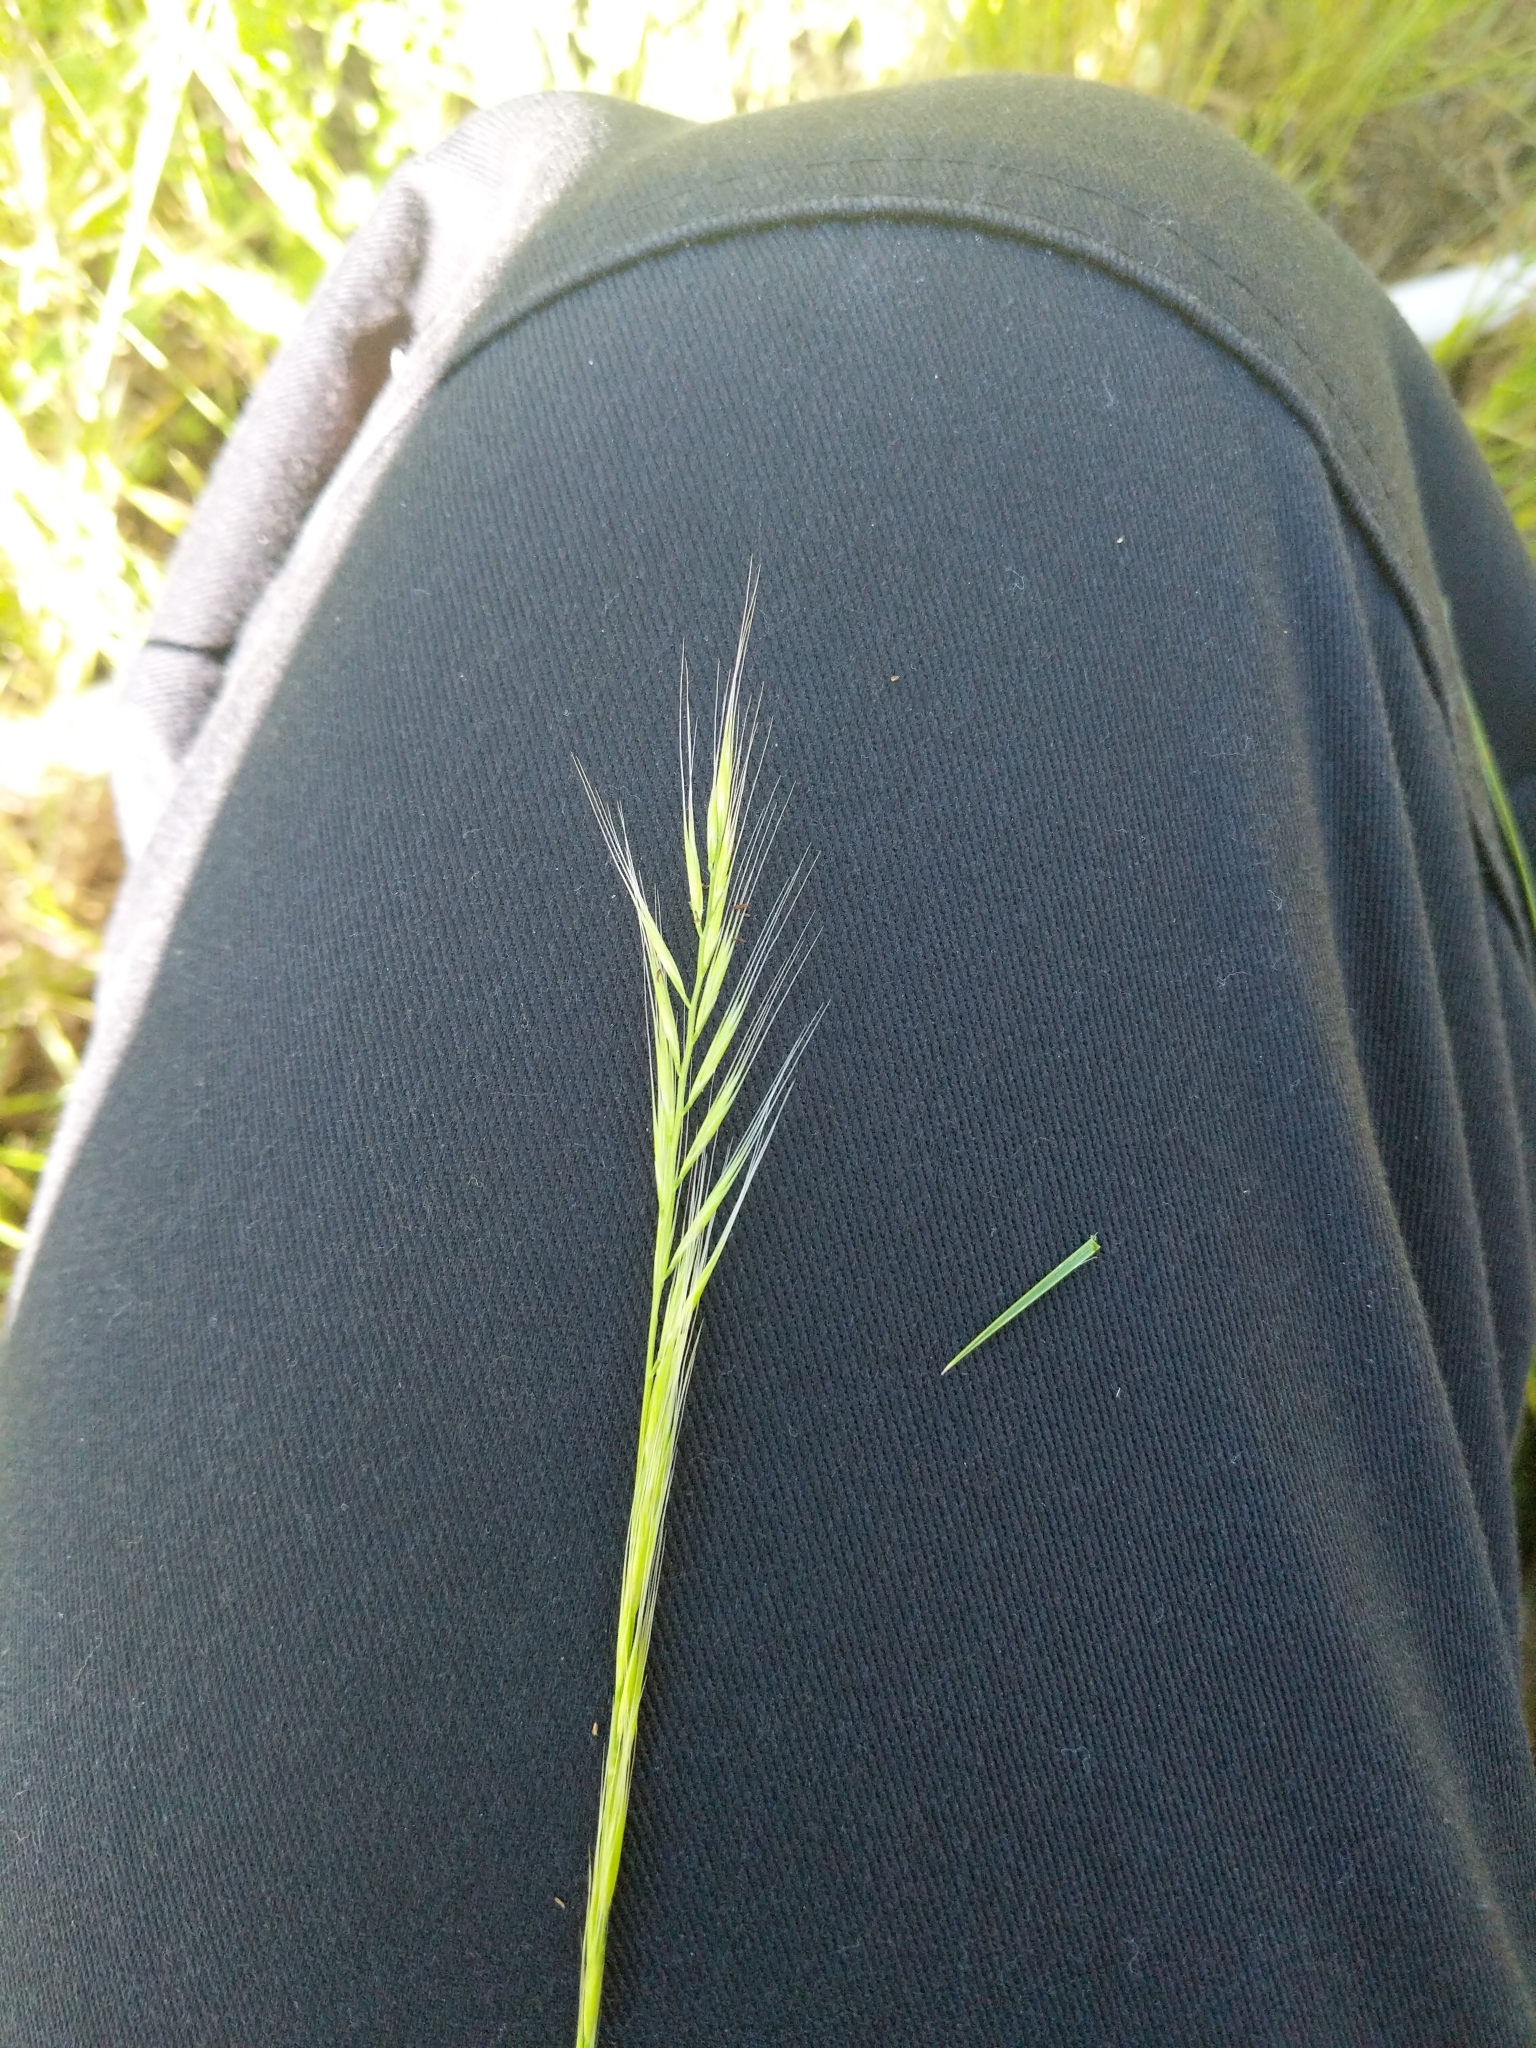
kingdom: Plantae
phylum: Tracheophyta
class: Liliopsida
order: Poales
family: Poaceae
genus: Festuca
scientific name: Festuca myuros
